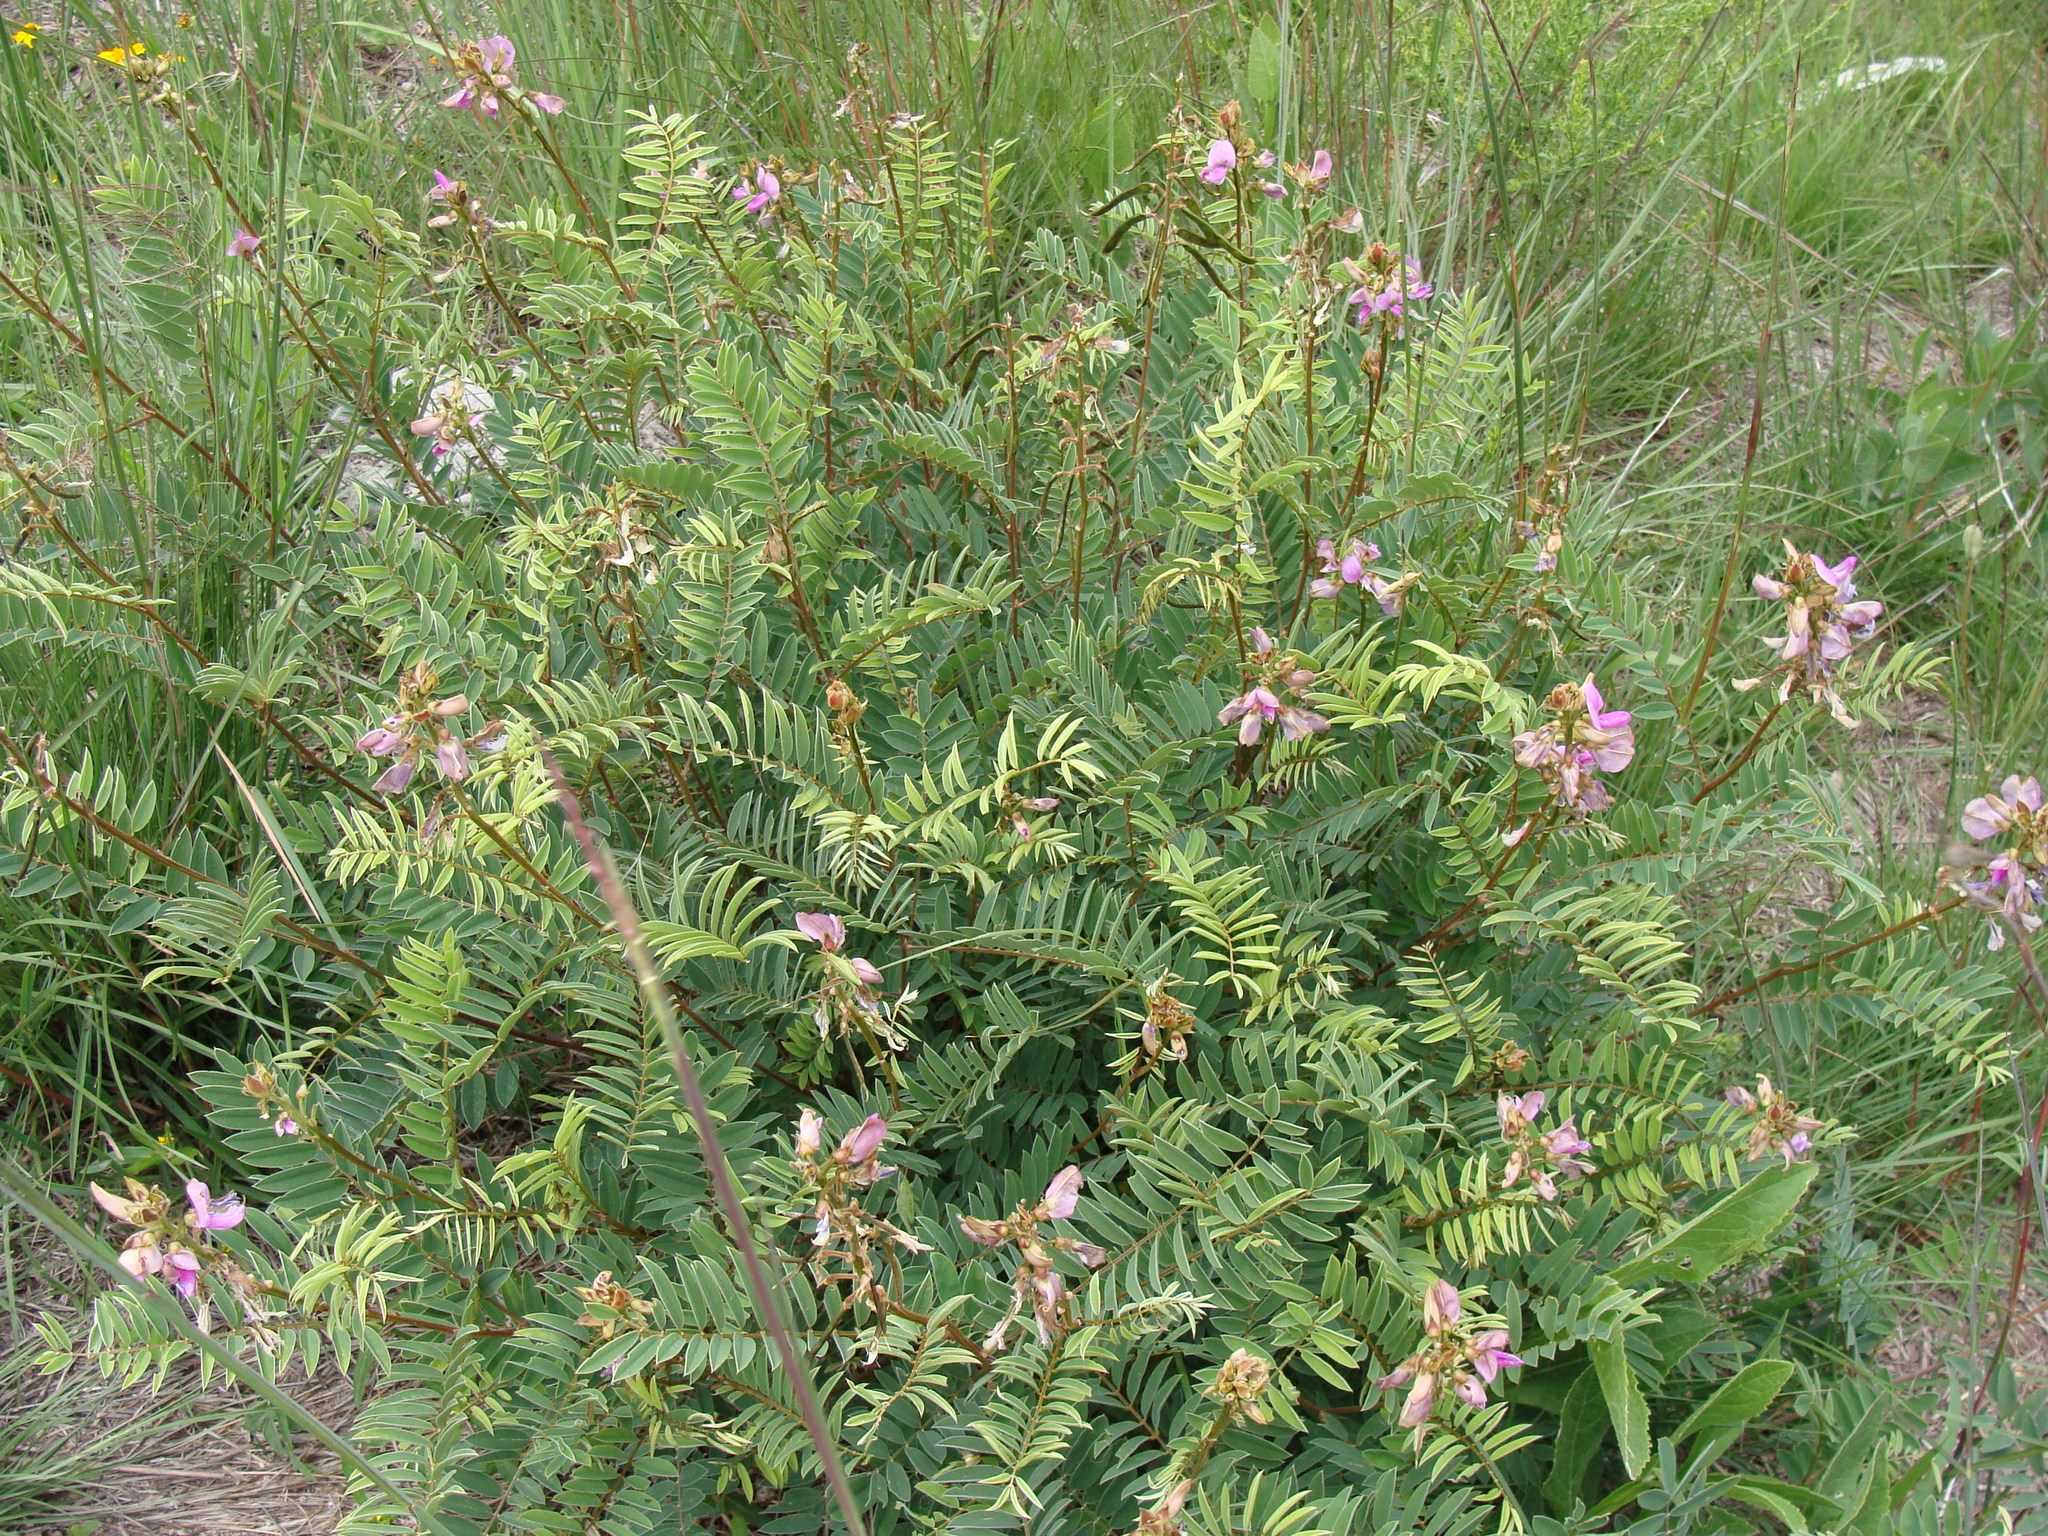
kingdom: Plantae
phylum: Tracheophyta
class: Magnoliopsida
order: Fabales
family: Fabaceae
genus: Tephrosia
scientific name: Tephrosia nicaraguensis
